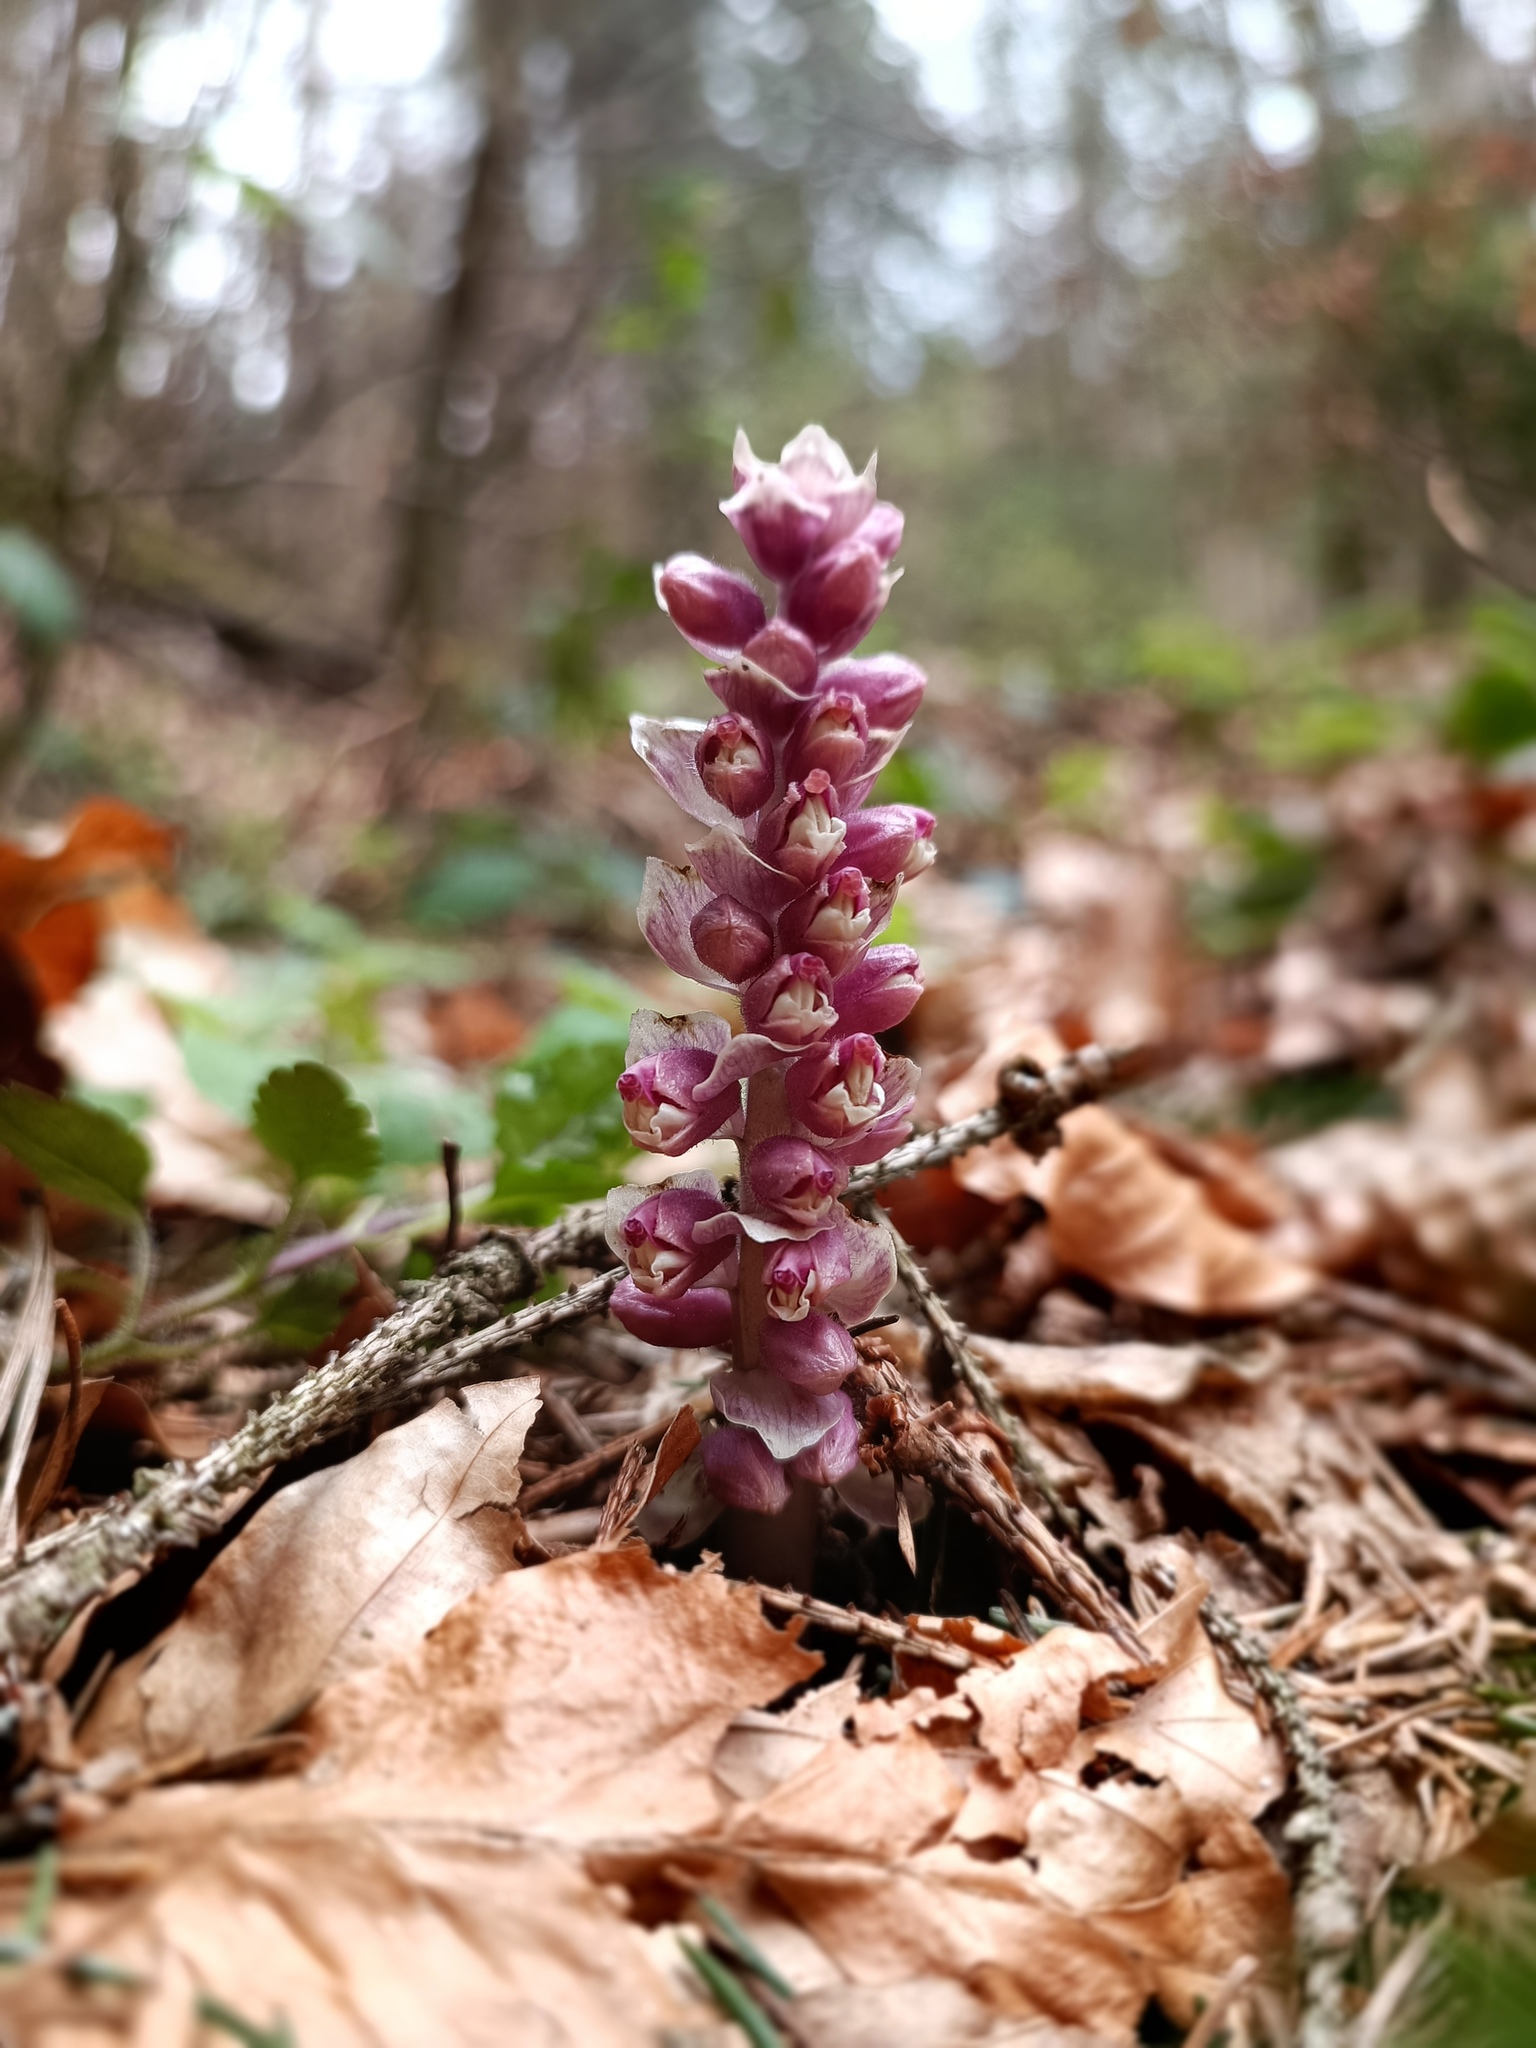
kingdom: Plantae
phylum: Tracheophyta
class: Magnoliopsida
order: Lamiales
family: Orobanchaceae
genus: Lathraea
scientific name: Lathraea squamaria
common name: Toothwort
